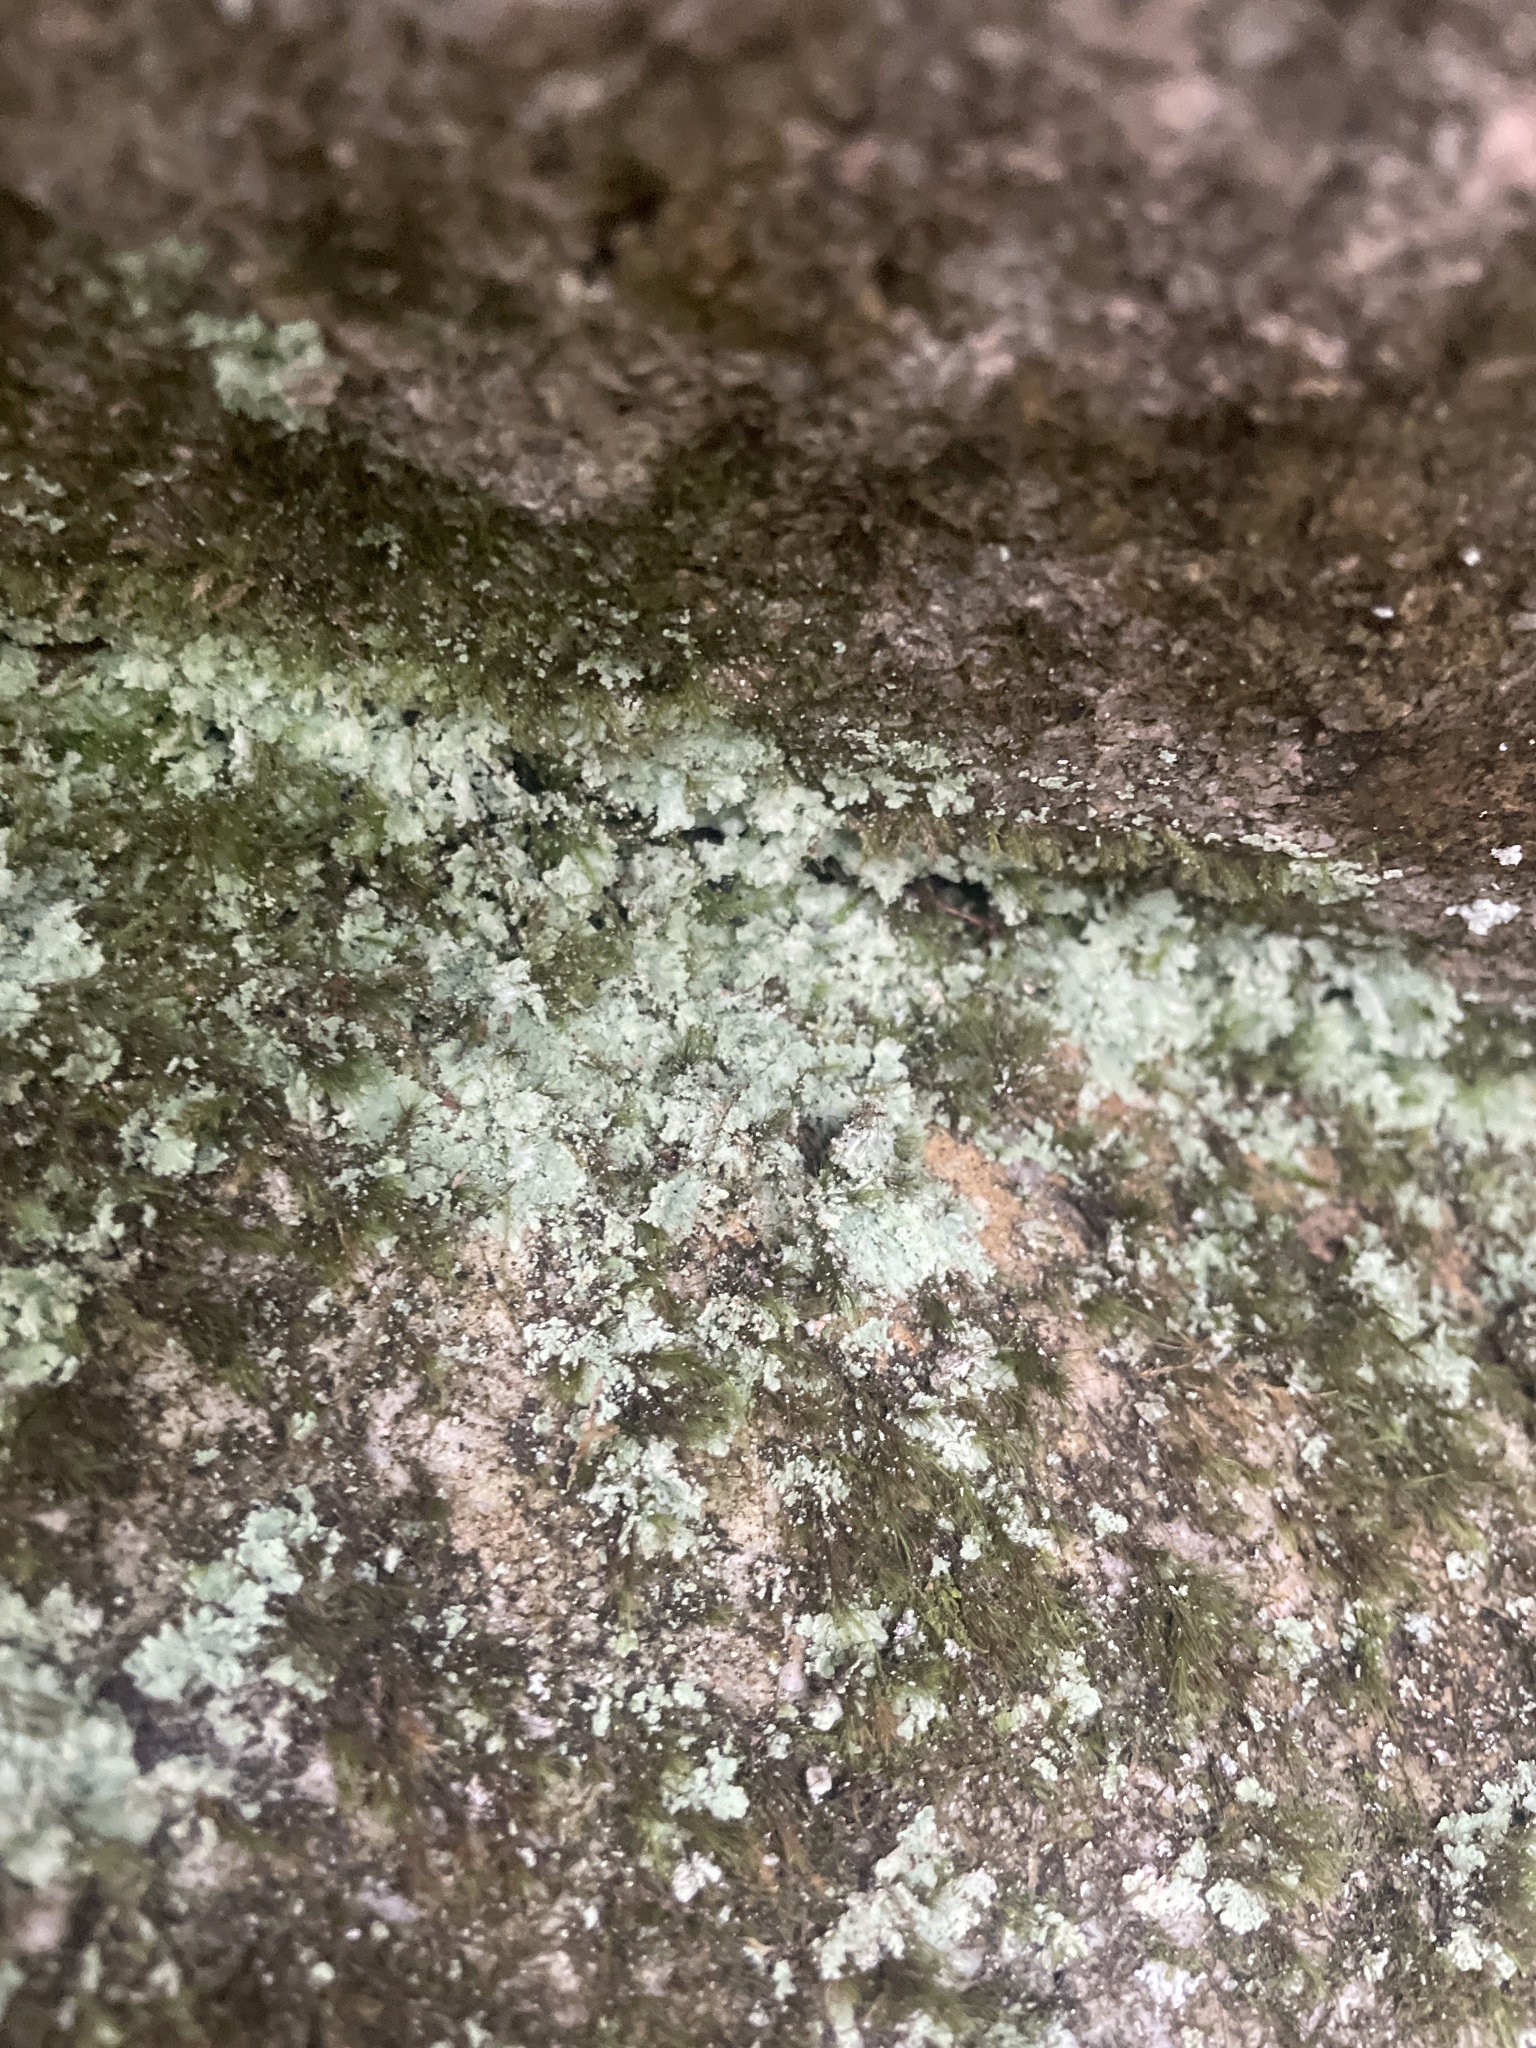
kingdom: Fungi
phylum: Ascomycota
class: Lecanoromycetes
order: Lecanorales
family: Stereocaulaceae
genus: Lepraria
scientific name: Lepraria lobificans
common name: Fluffy dust lichen
